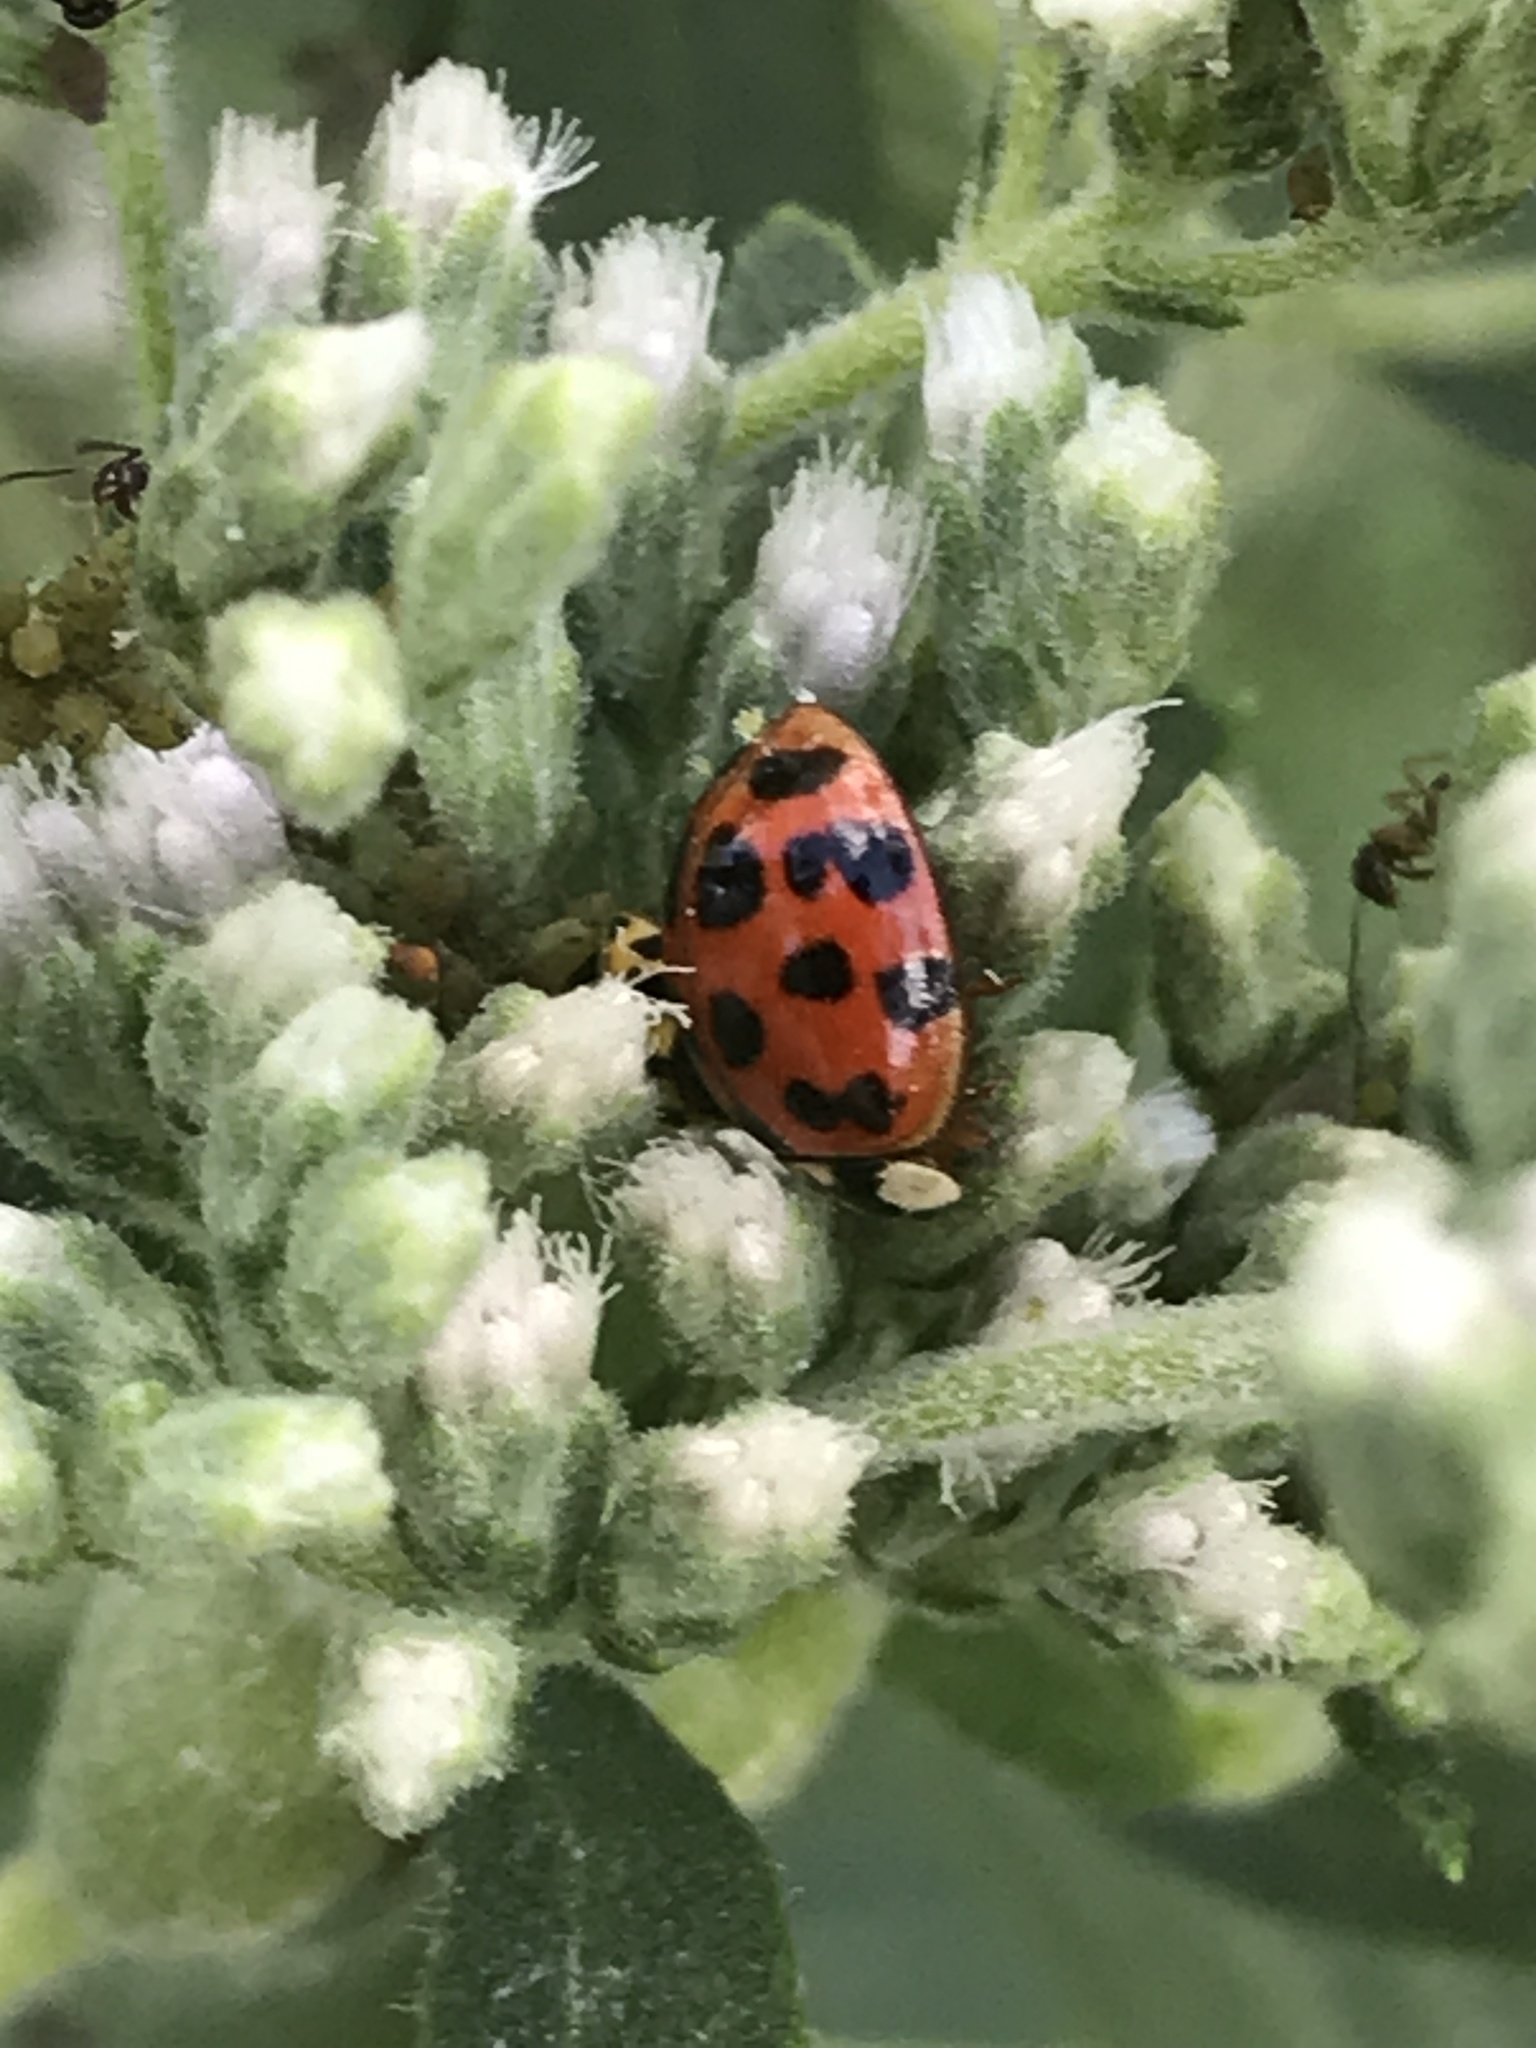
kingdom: Animalia
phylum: Arthropoda
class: Insecta
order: Coleoptera
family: Coccinellidae
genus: Harmonia
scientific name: Harmonia axyridis
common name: Harlequin ladybird
